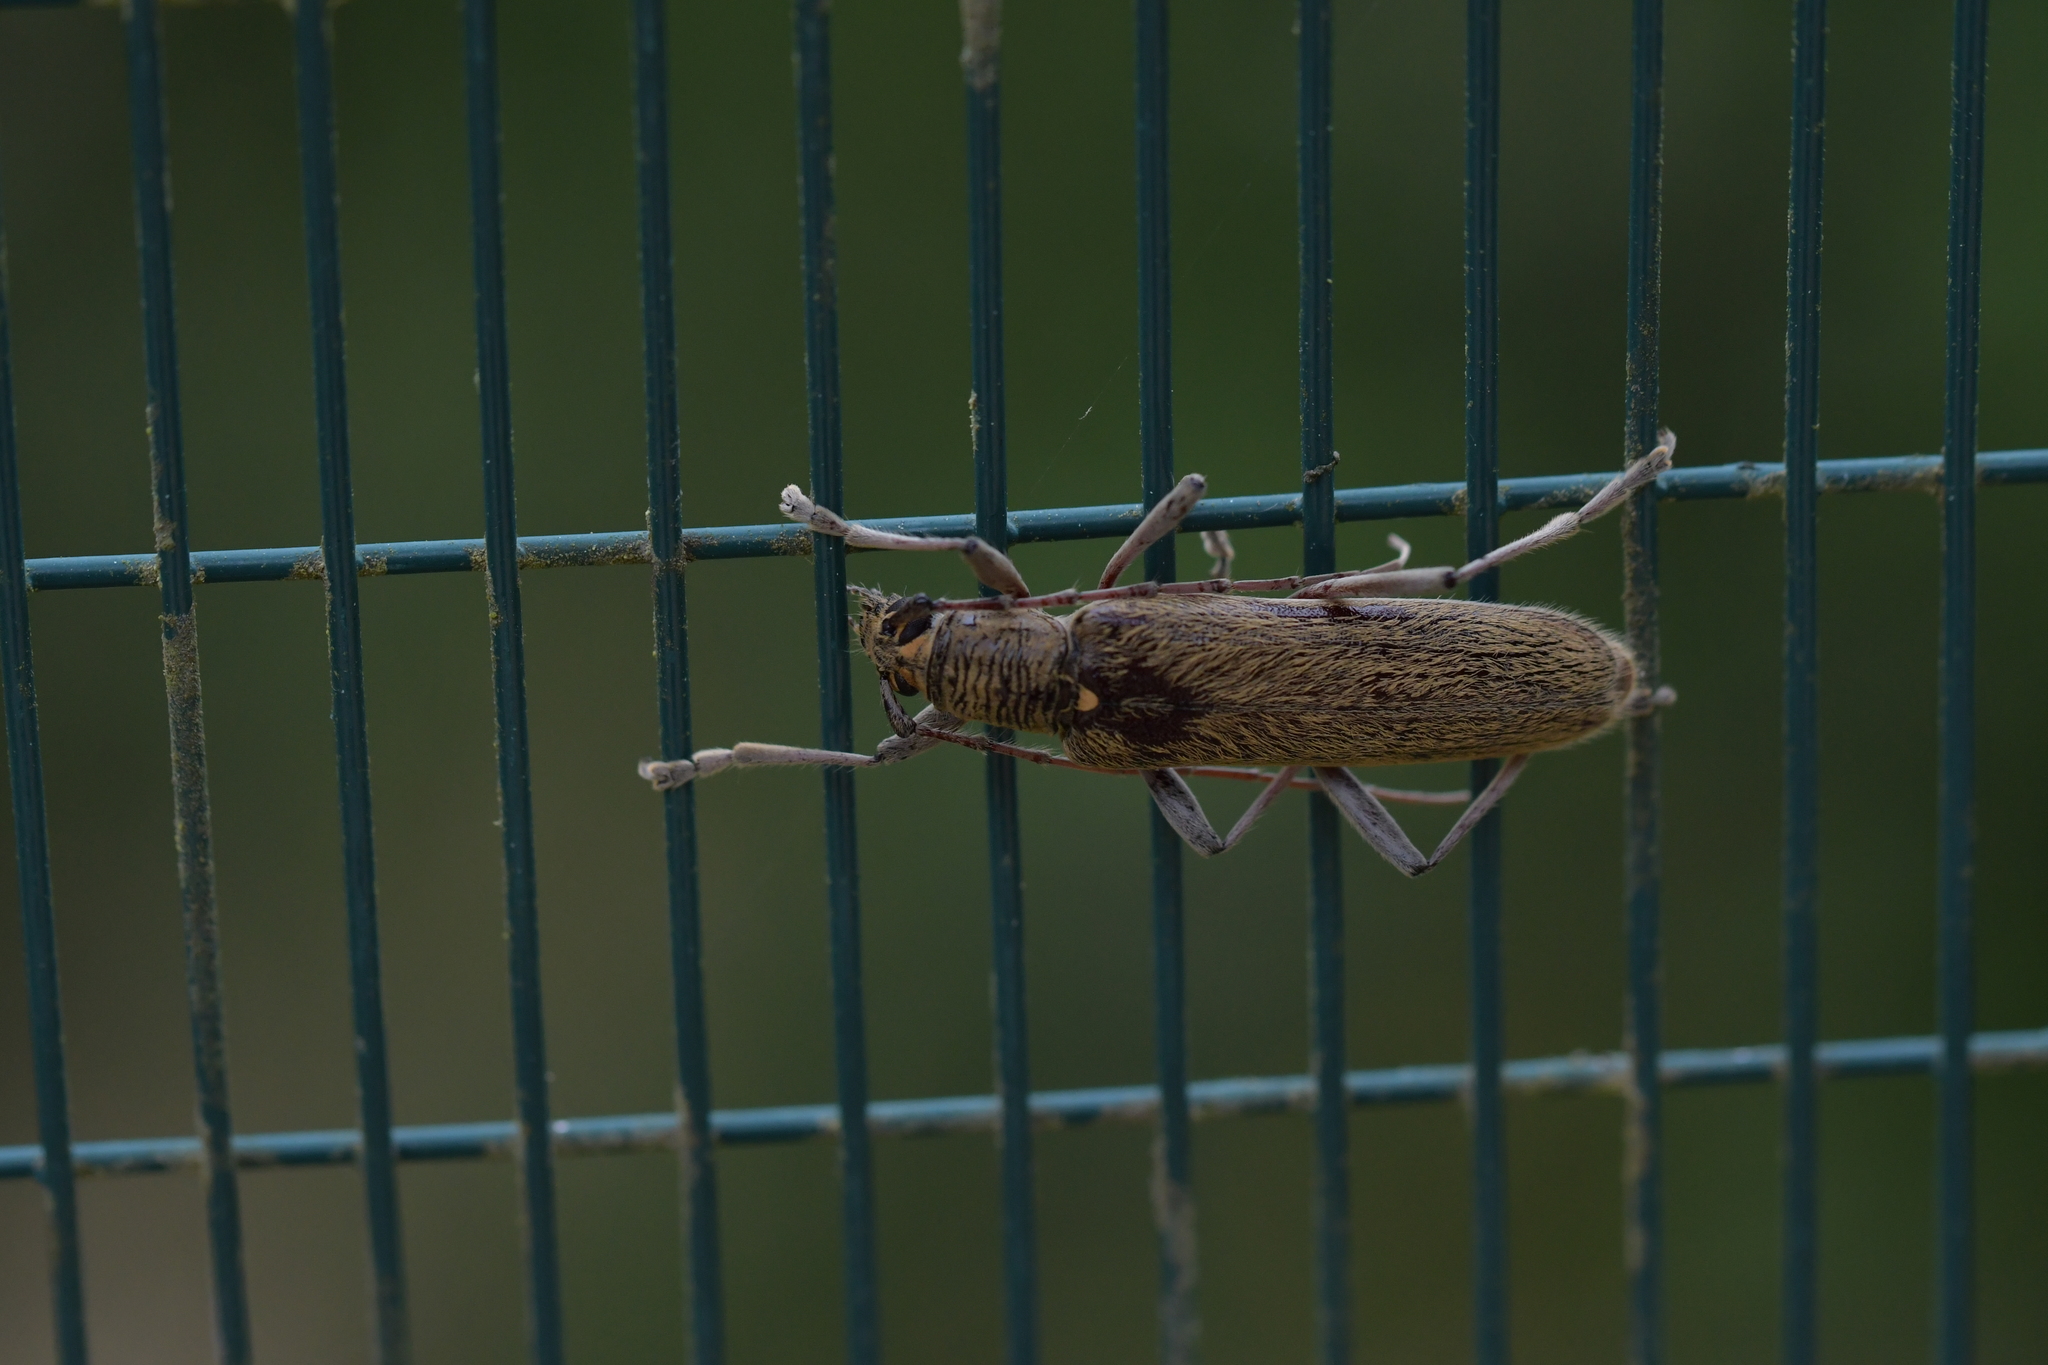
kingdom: Animalia
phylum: Arthropoda
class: Insecta
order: Coleoptera
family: Cerambycidae
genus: Oemona
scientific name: Oemona hirta
